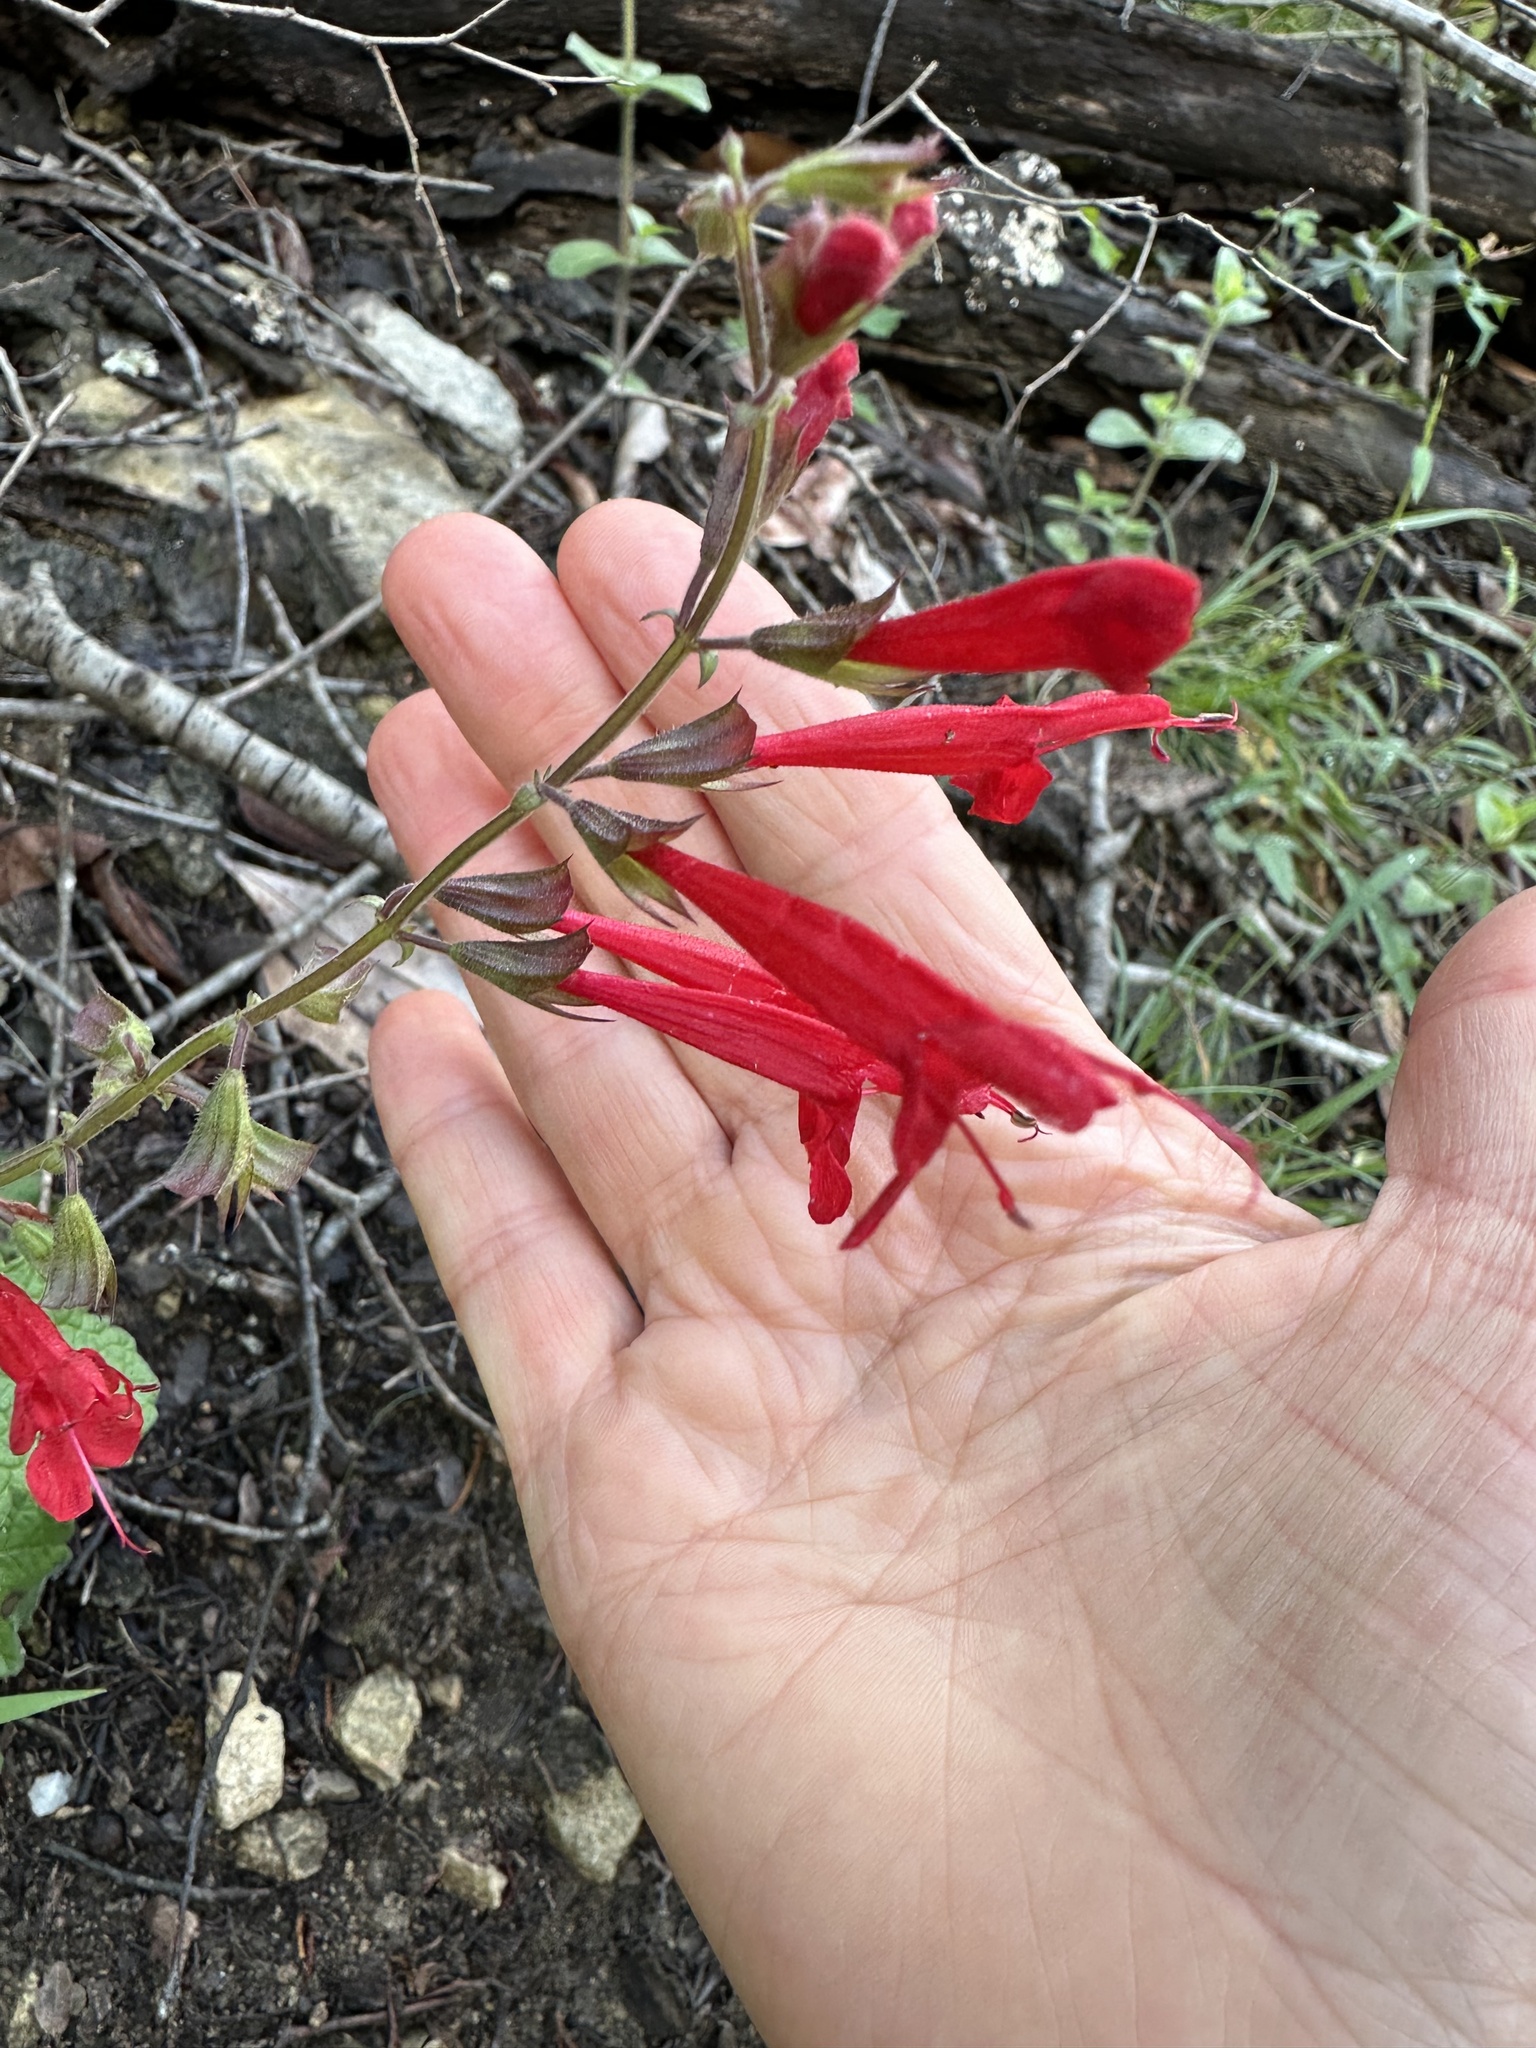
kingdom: Plantae
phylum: Tracheophyta
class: Magnoliopsida
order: Lamiales
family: Lamiaceae
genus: Salvia
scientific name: Salvia roemeriana
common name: Cedar sage
